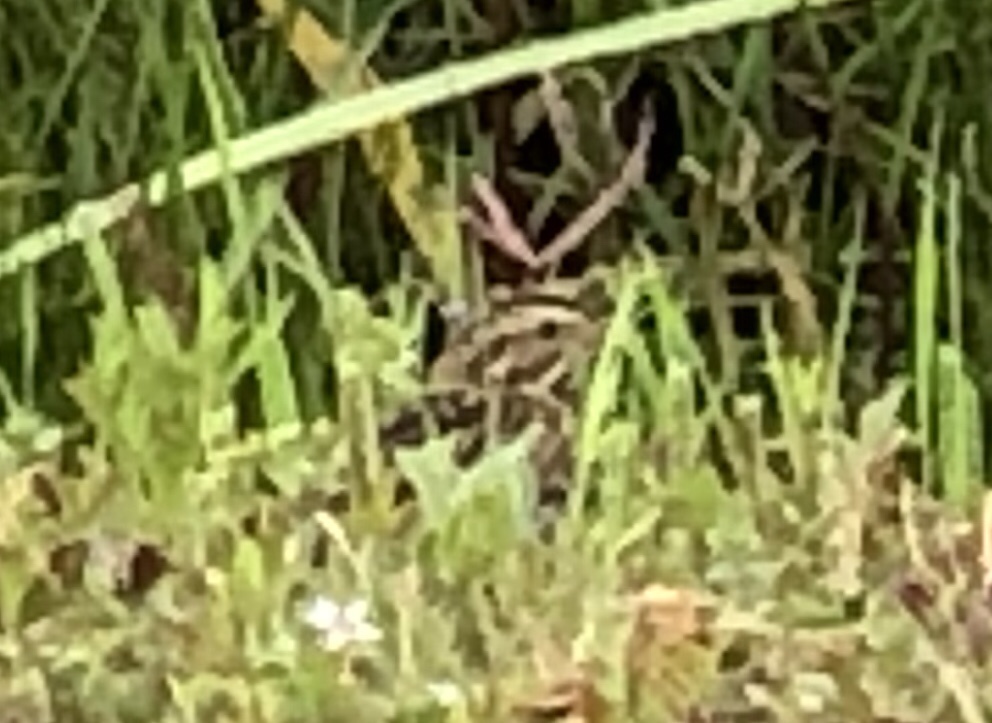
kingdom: Animalia
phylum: Chordata
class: Aves
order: Passeriformes
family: Passerellidae
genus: Passerculus
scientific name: Passerculus sandwichensis
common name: Savannah sparrow
